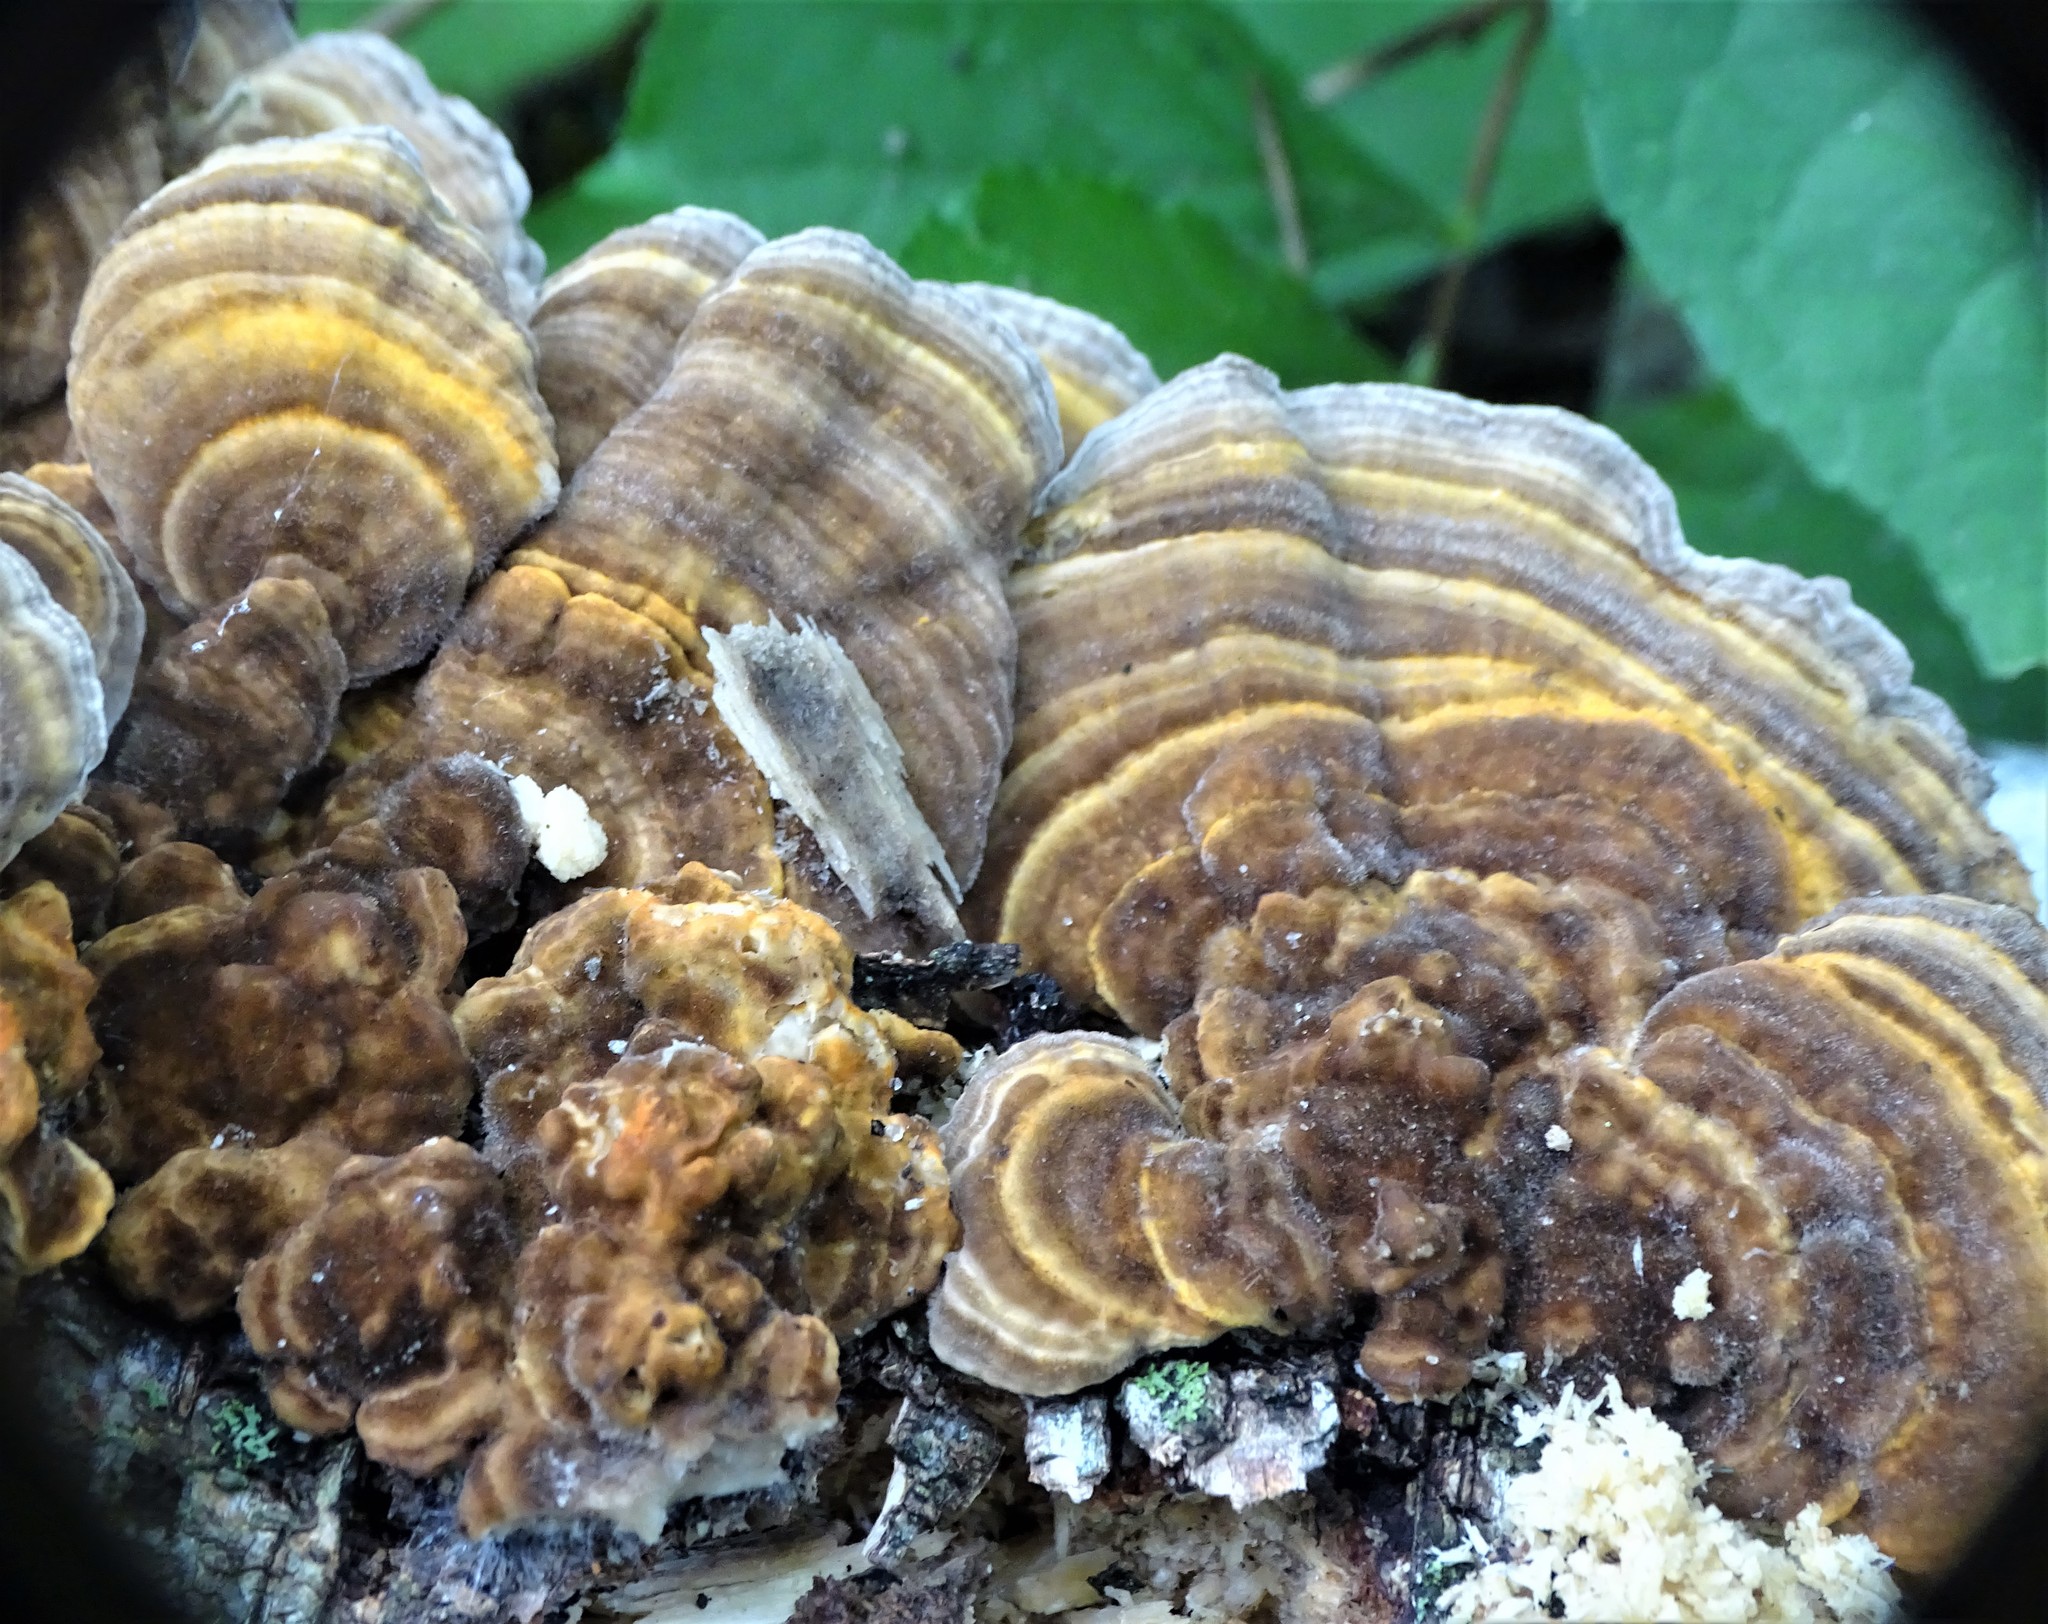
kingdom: Fungi
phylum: Basidiomycota
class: Agaricomycetes
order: Polyporales
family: Polyporaceae
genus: Lenzites
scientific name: Lenzites betulinus
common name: Birch mazegill
